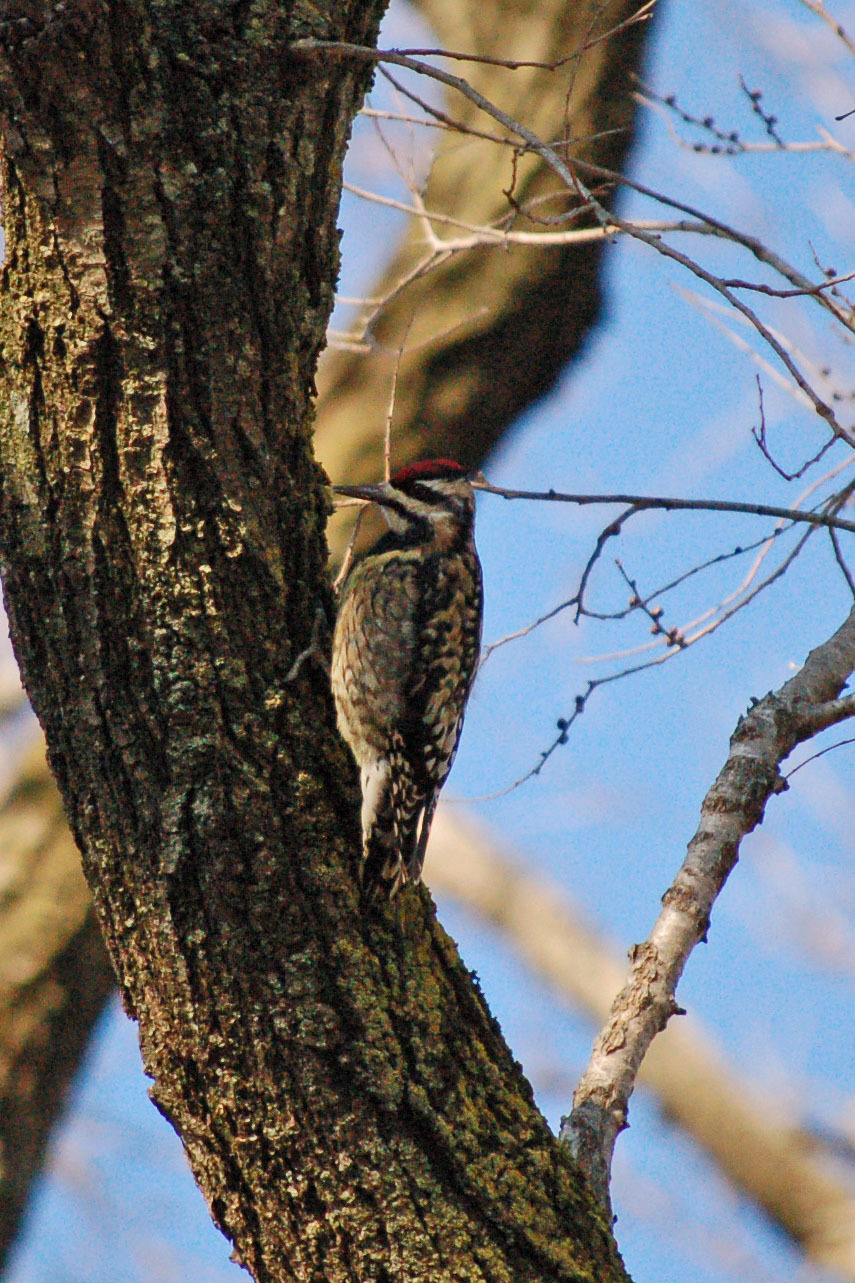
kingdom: Animalia
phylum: Chordata
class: Aves
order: Piciformes
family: Picidae
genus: Sphyrapicus
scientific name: Sphyrapicus varius
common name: Yellow-bellied sapsucker
